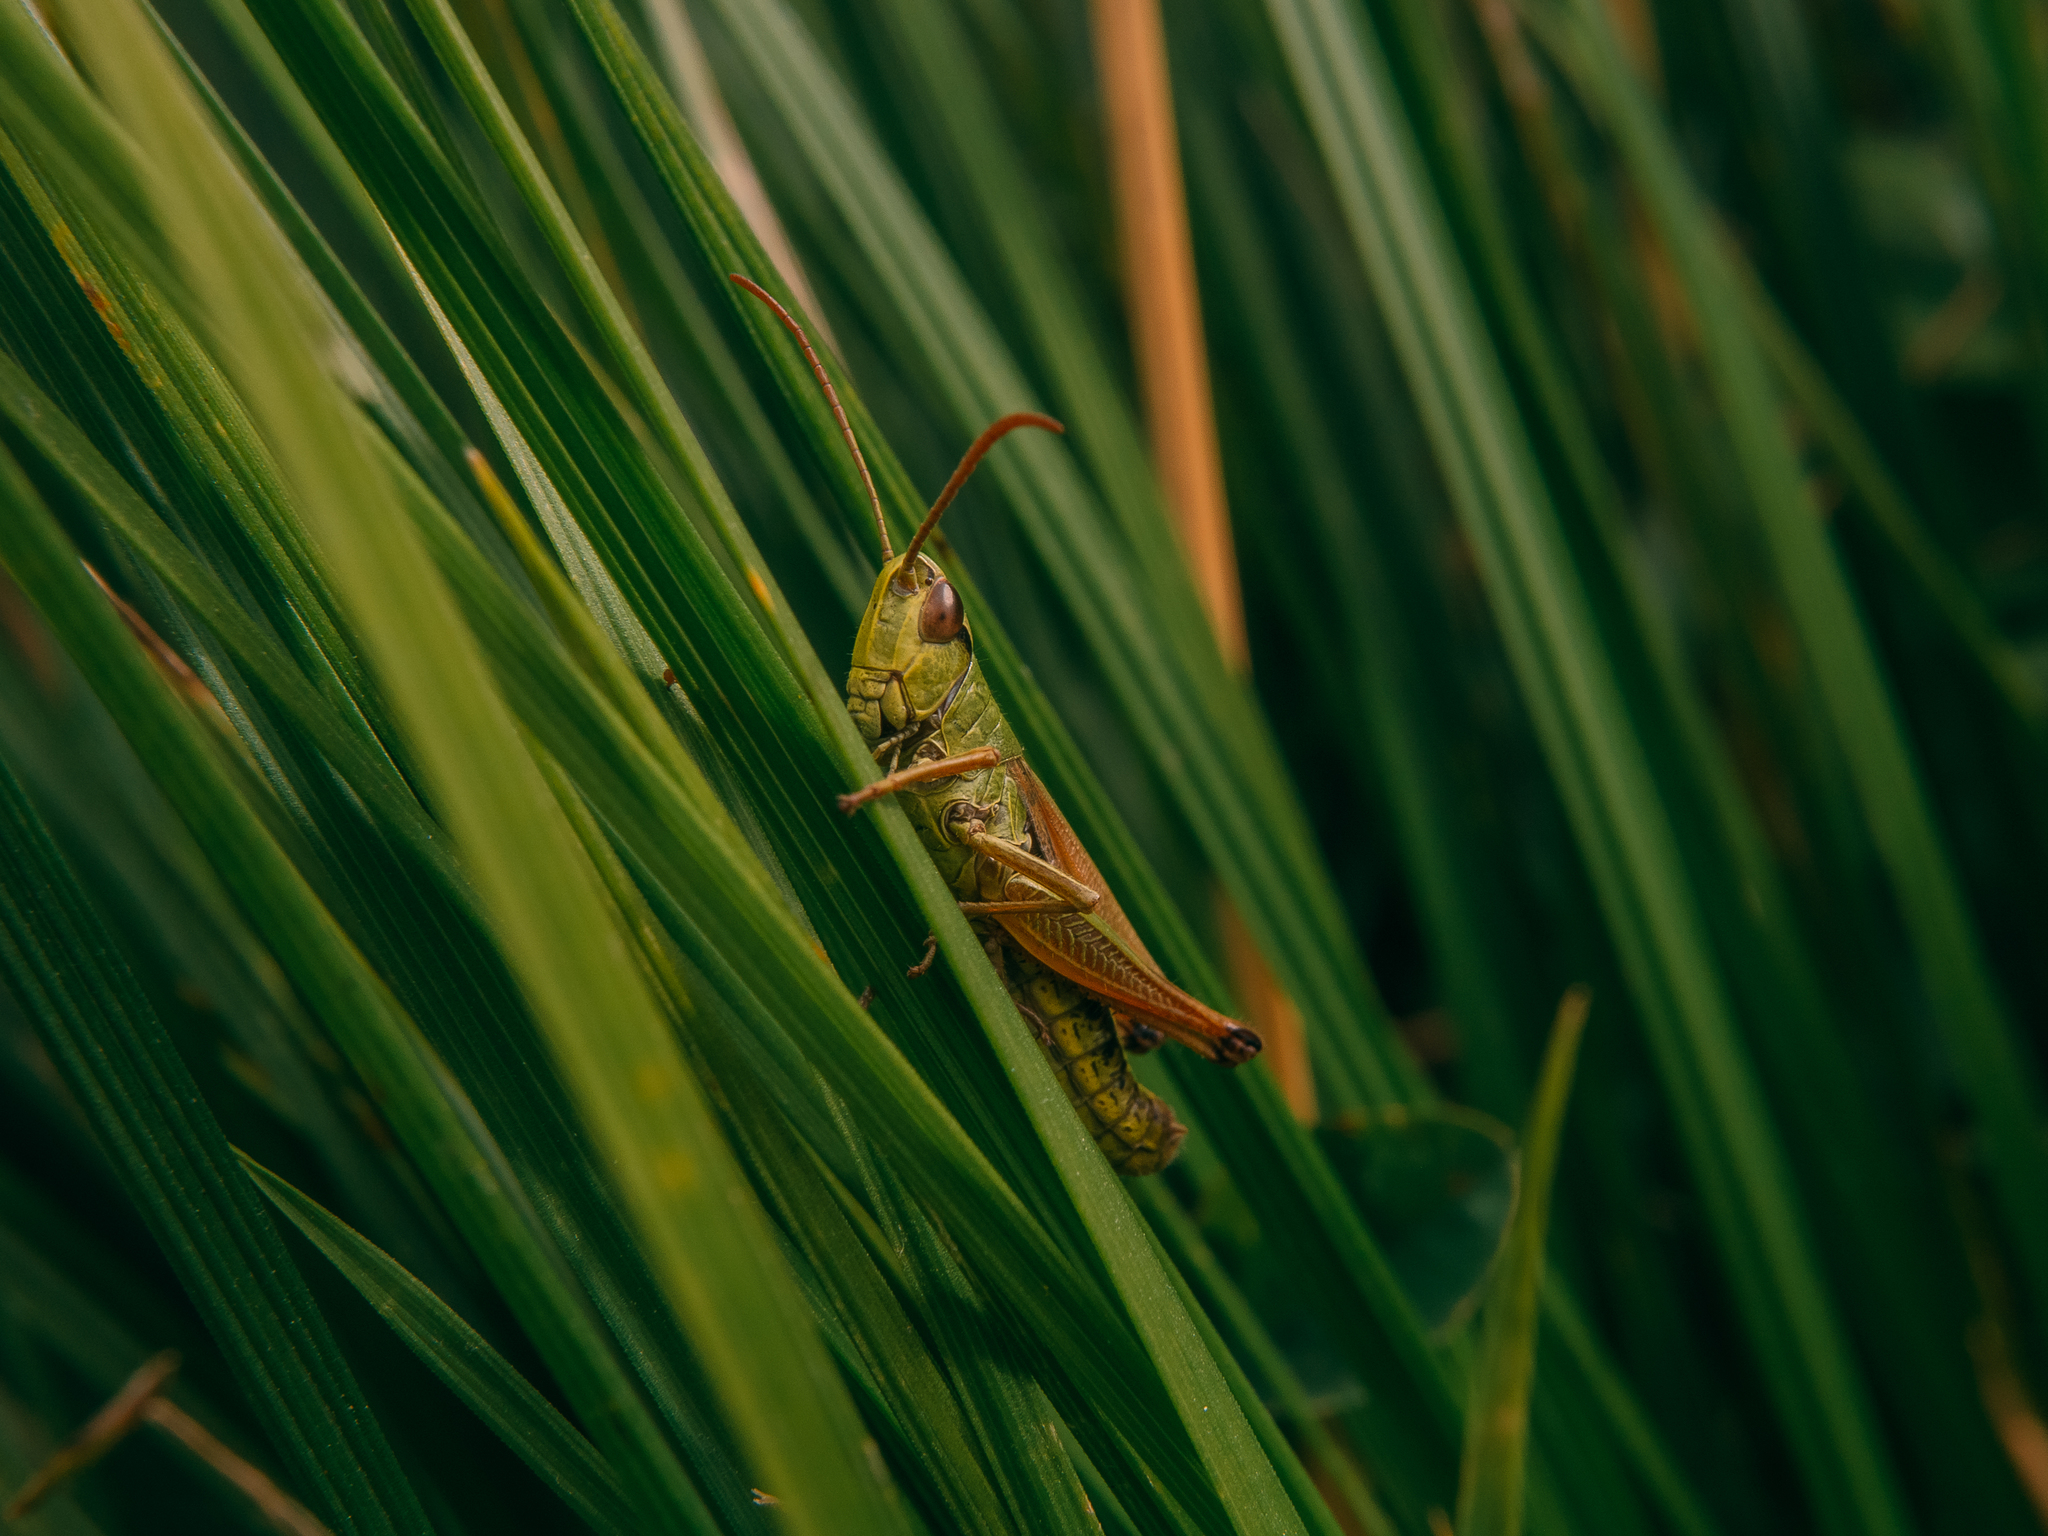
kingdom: Animalia
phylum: Arthropoda
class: Insecta
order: Orthoptera
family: Acrididae
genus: Pseudochorthippus
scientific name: Pseudochorthippus parallelus
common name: Meadow grasshopper
